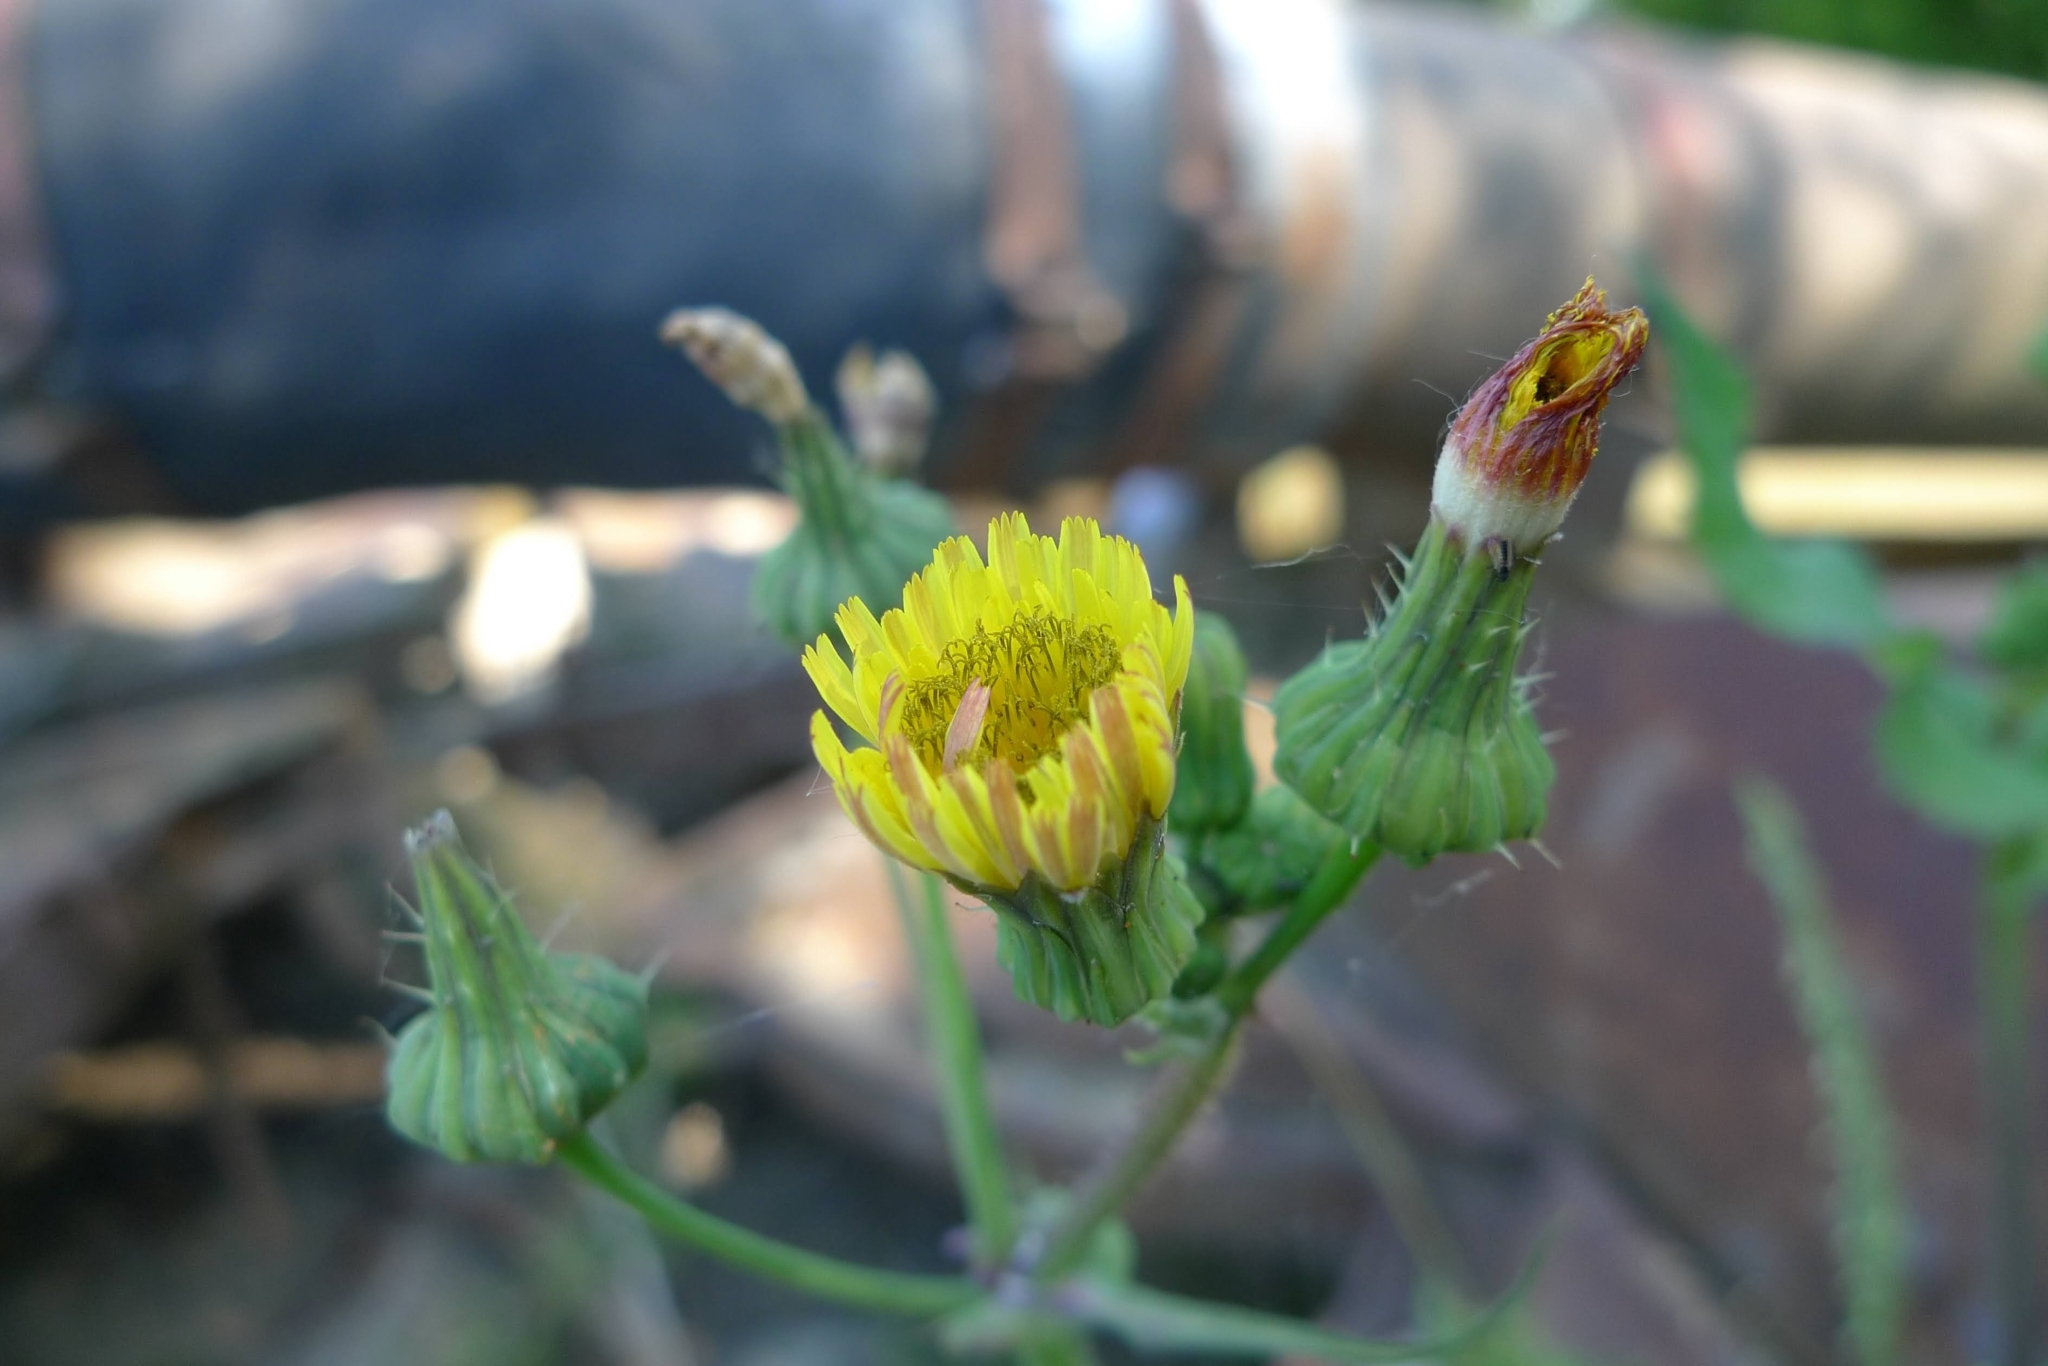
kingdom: Plantae
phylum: Tracheophyta
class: Magnoliopsida
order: Asterales
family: Asteraceae
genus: Sonchus
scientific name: Sonchus oleraceus
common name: Common sowthistle
